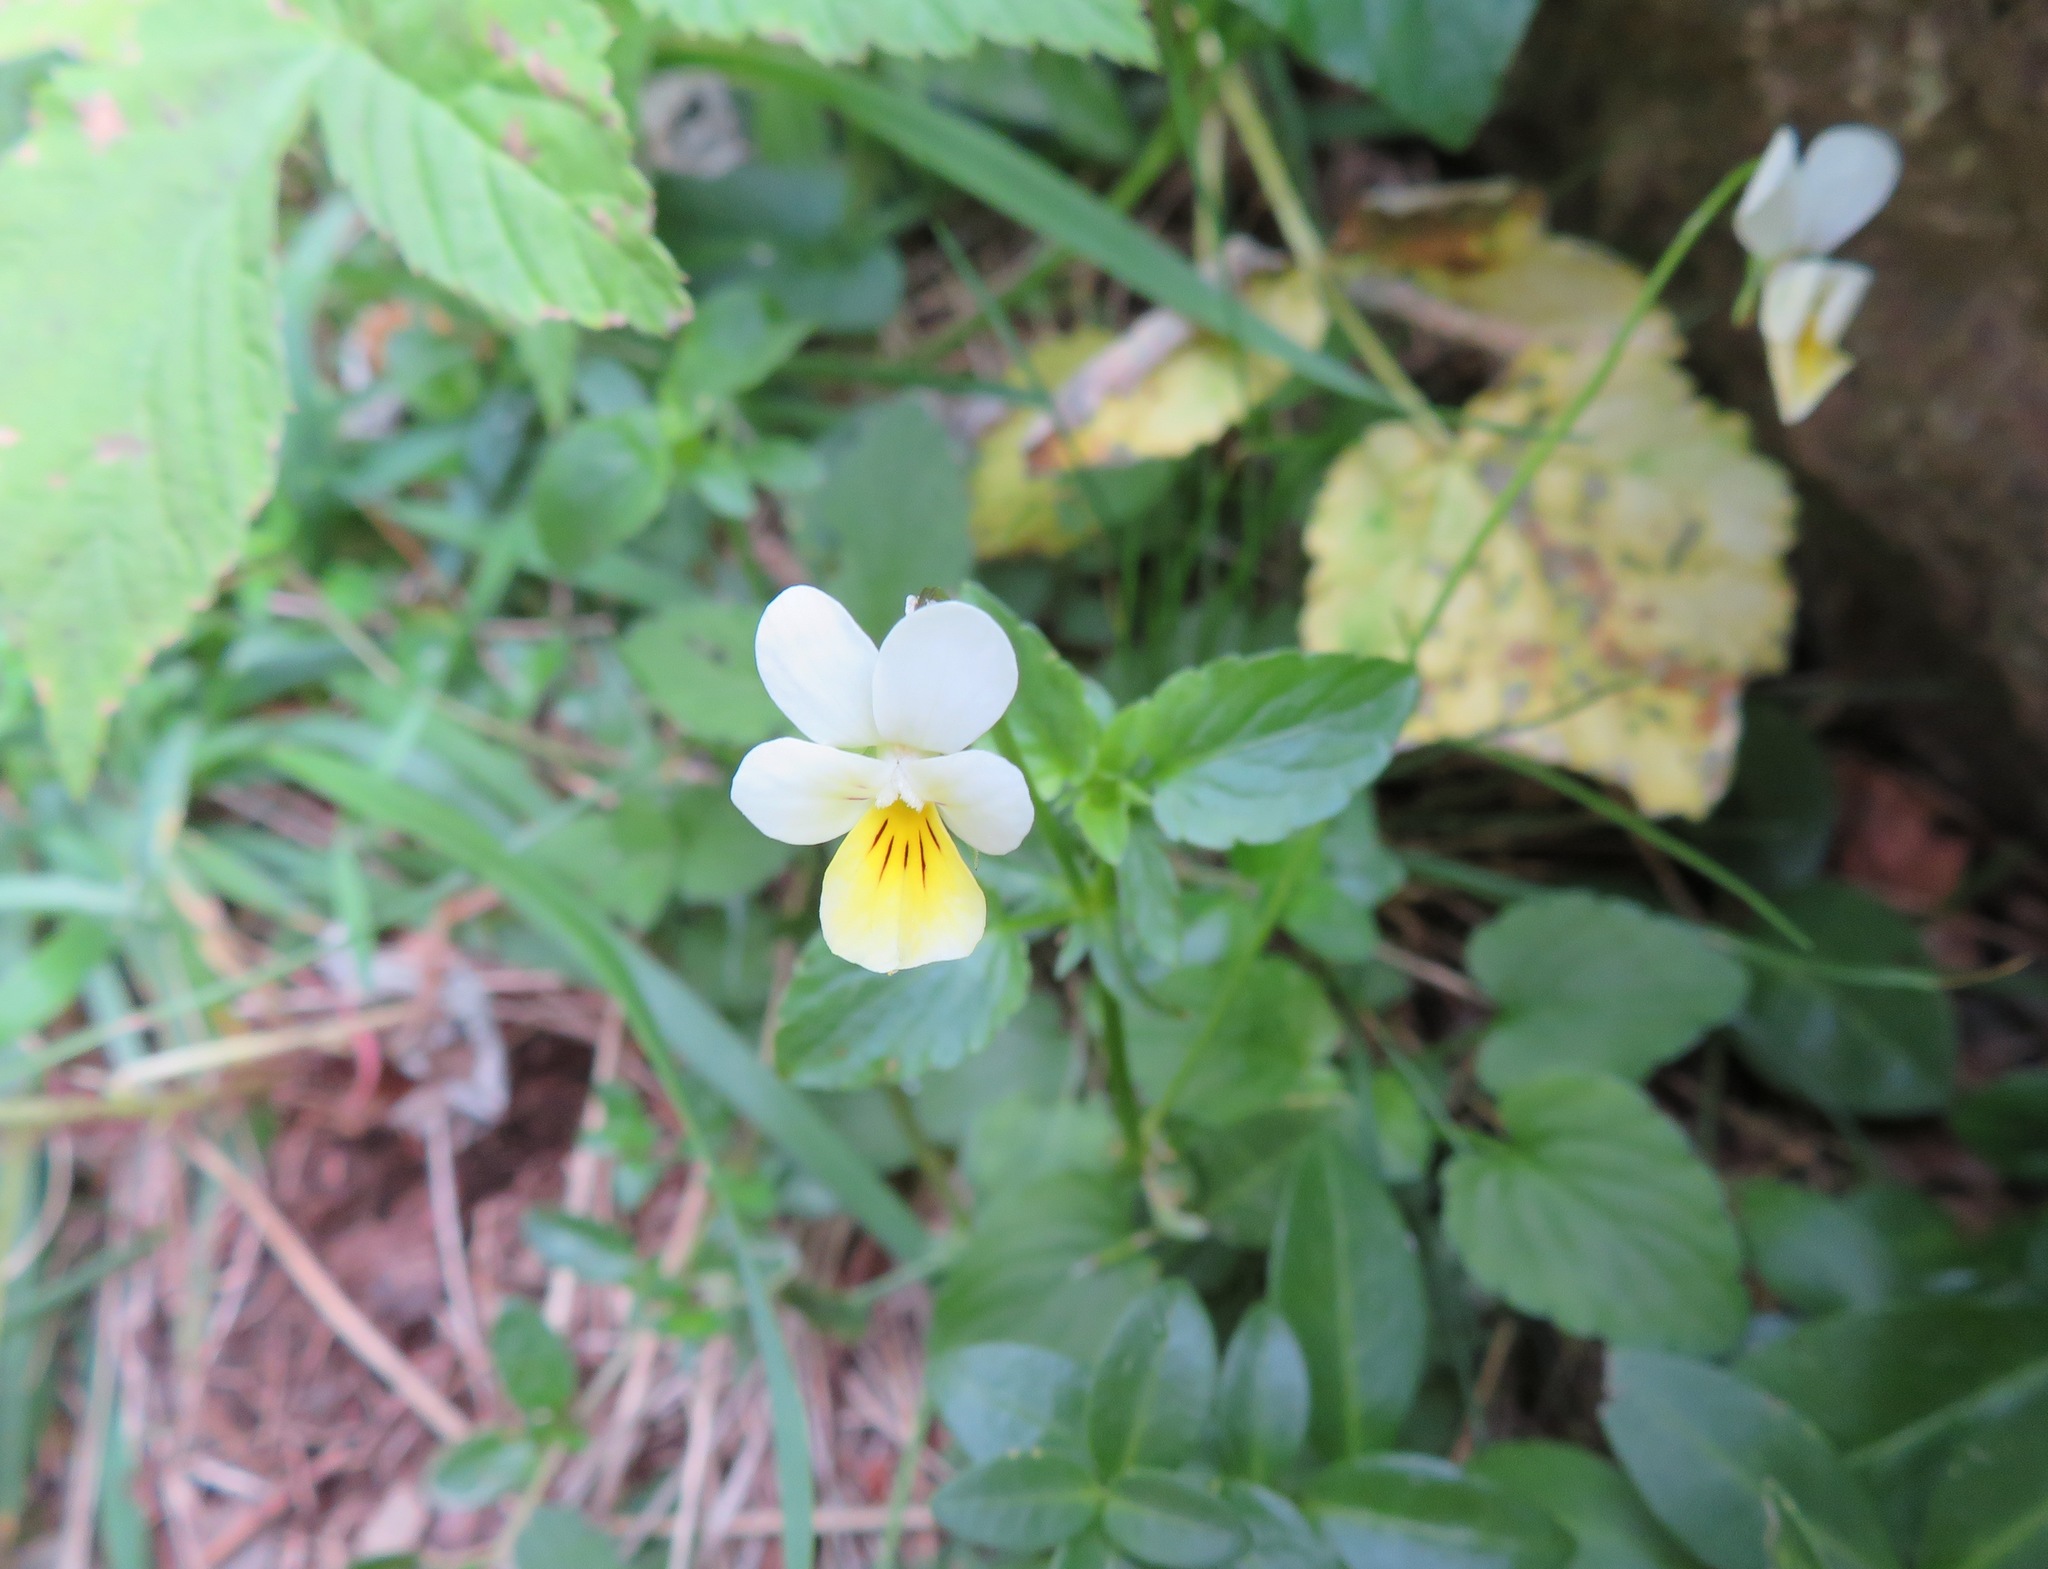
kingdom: Plantae
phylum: Tracheophyta
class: Magnoliopsida
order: Malpighiales
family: Violaceae
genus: Viola
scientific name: Viola arvensis
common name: Field pansy
